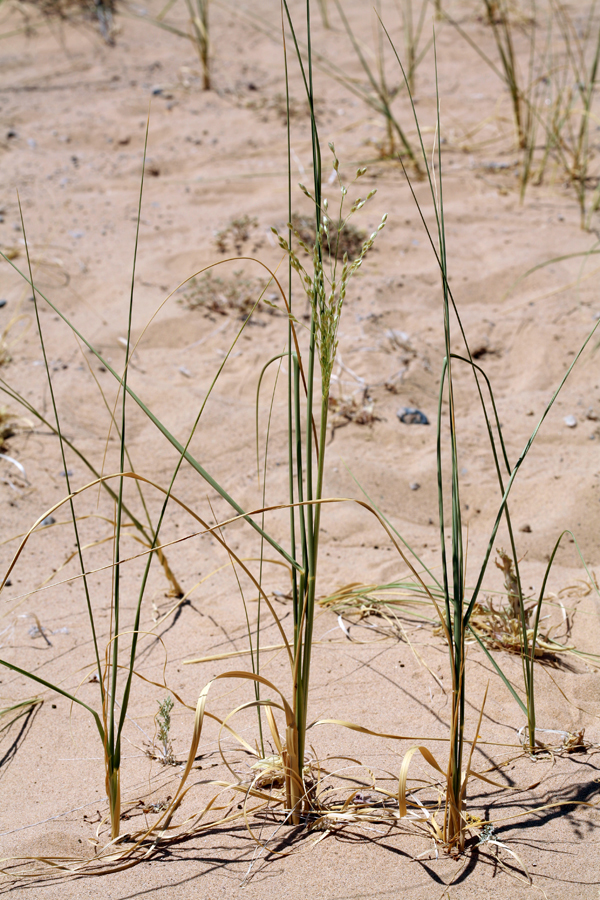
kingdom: Plantae
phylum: Tracheophyta
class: Liliopsida
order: Poales
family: Poaceae
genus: Panicum
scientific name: Panicum urvilleanum
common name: Silky panic grass
